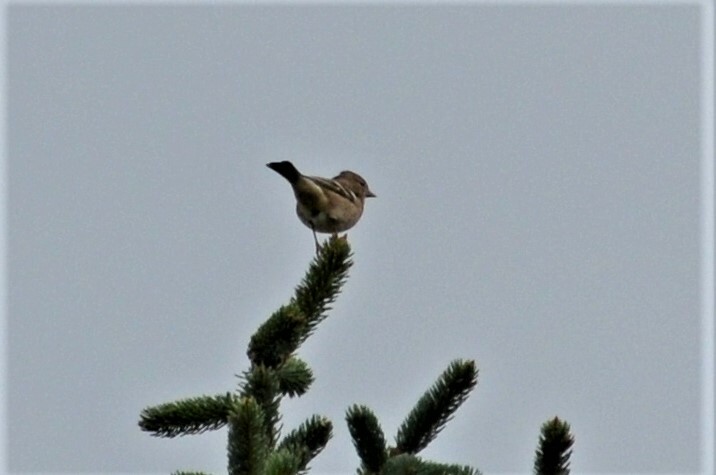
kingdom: Animalia
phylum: Chordata
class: Aves
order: Passeriformes
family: Fringillidae
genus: Fringilla
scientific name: Fringilla coelebs
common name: Common chaffinch
